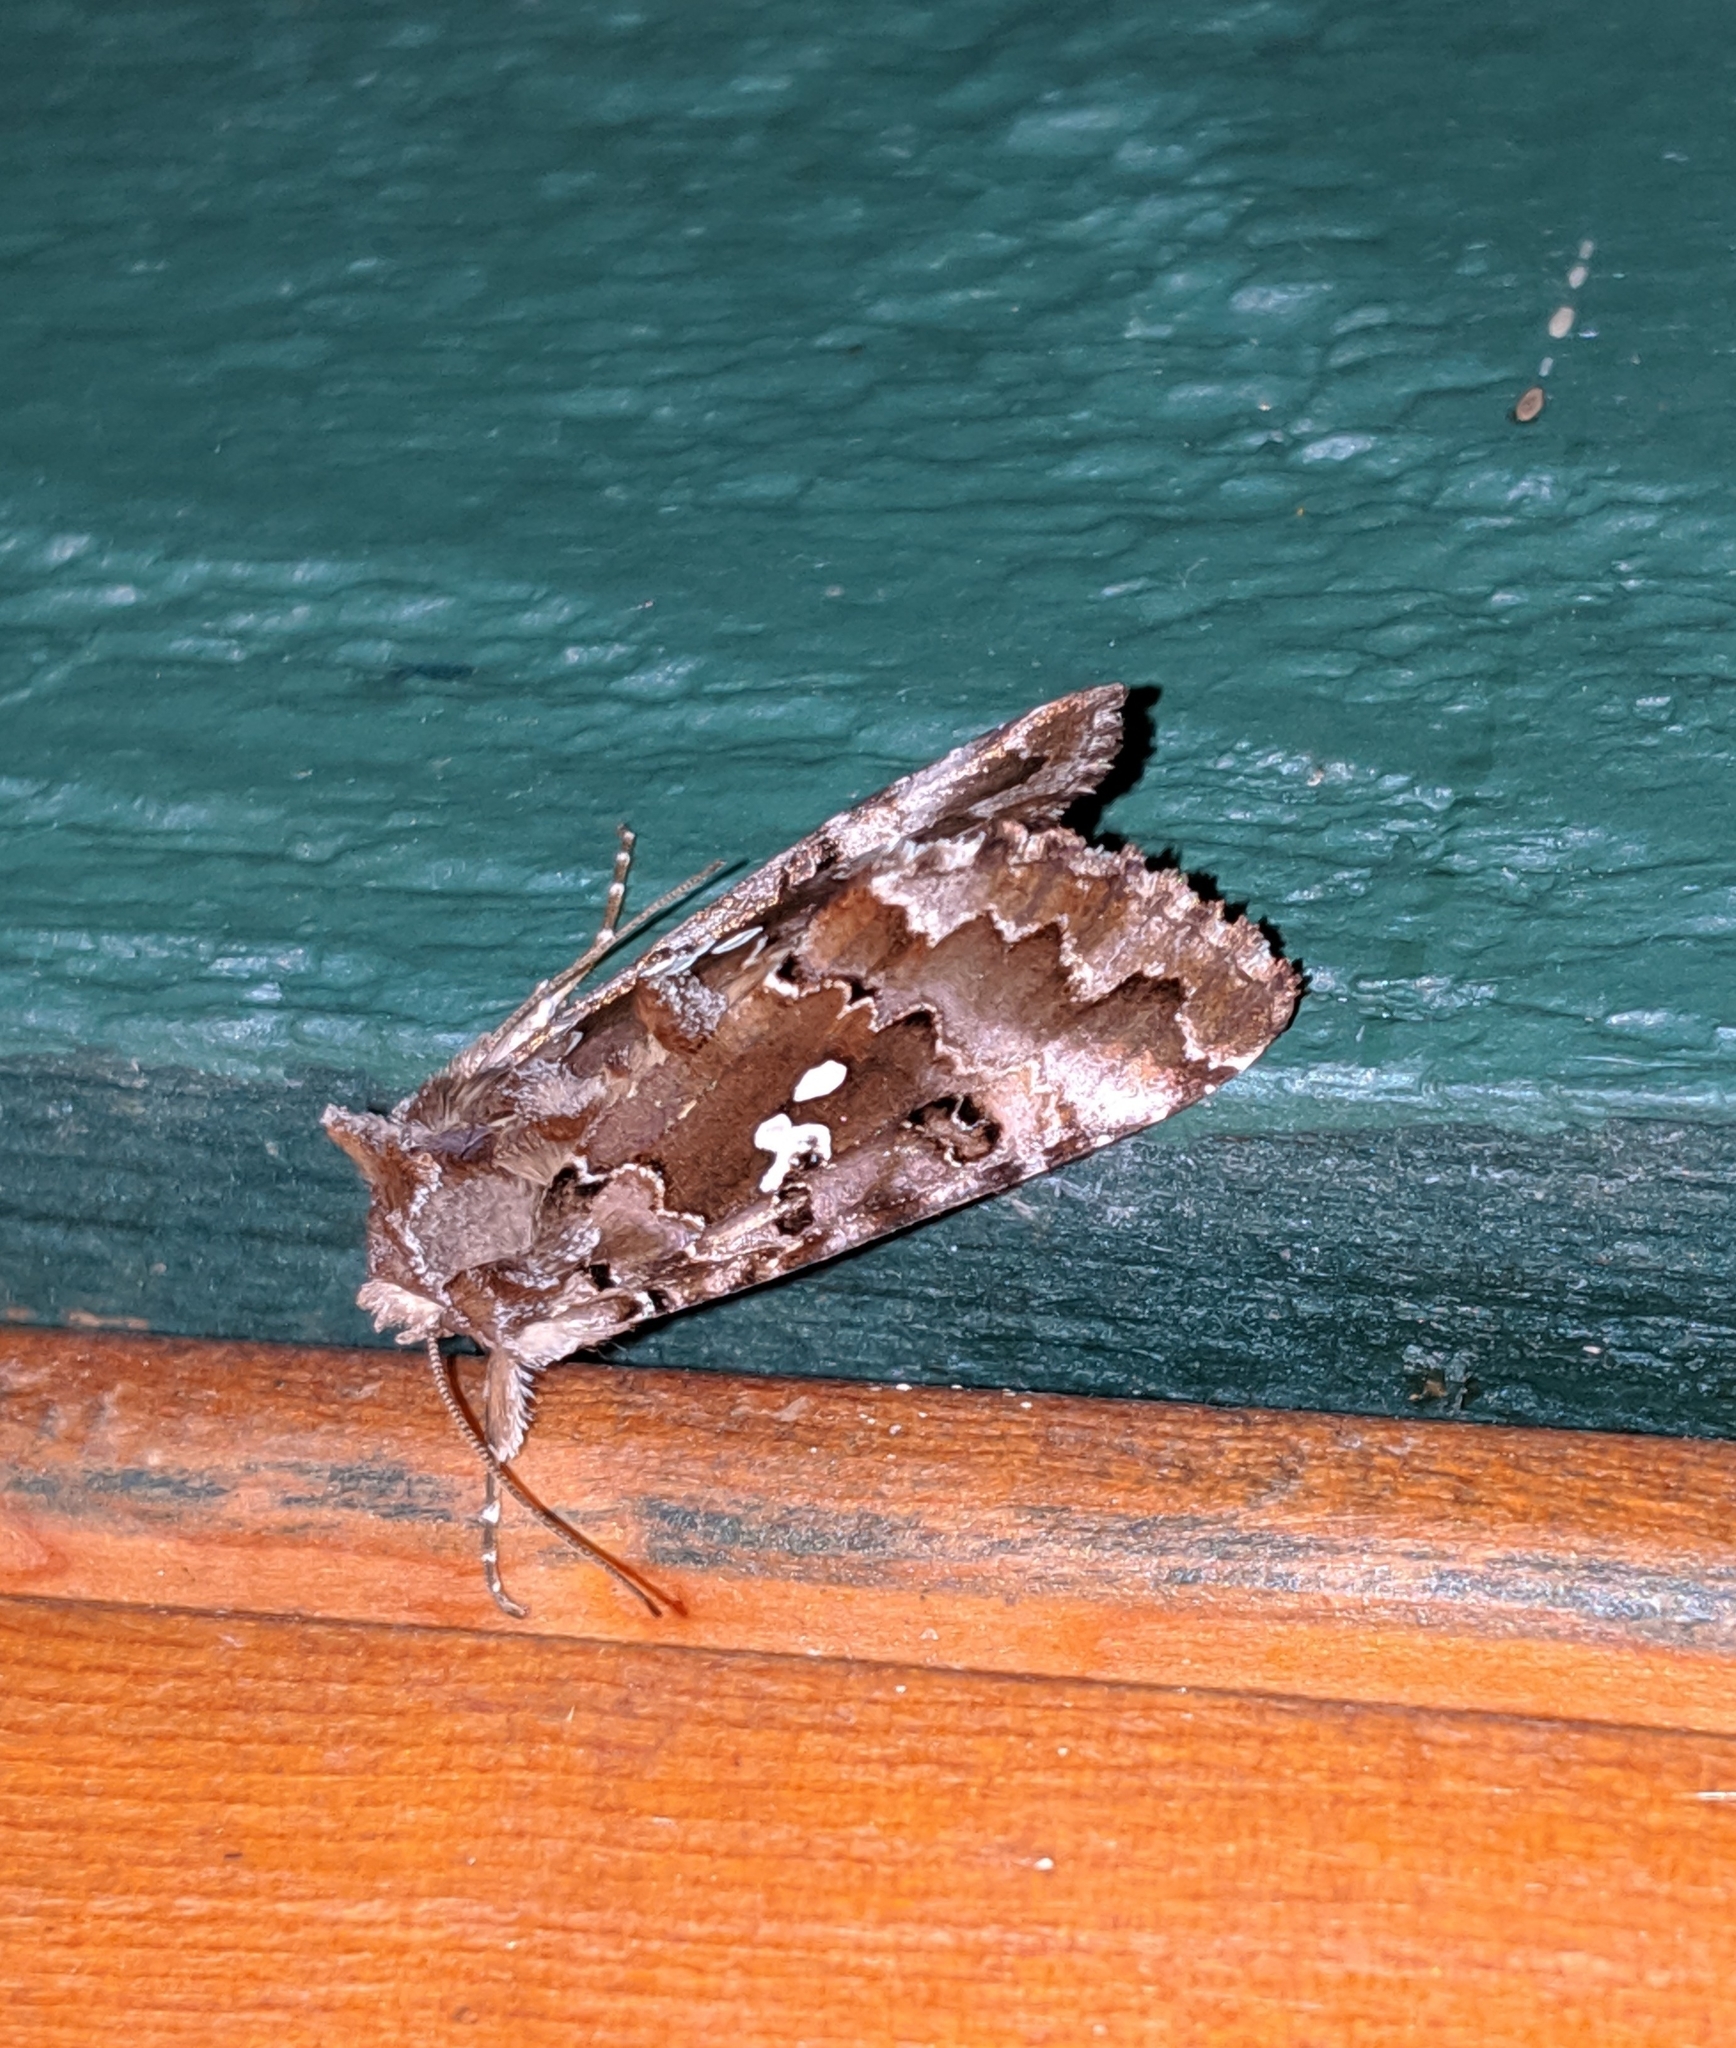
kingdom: Animalia
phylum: Arthropoda
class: Insecta
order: Lepidoptera
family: Noctuidae
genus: Autographa
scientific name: Autographa corusca
